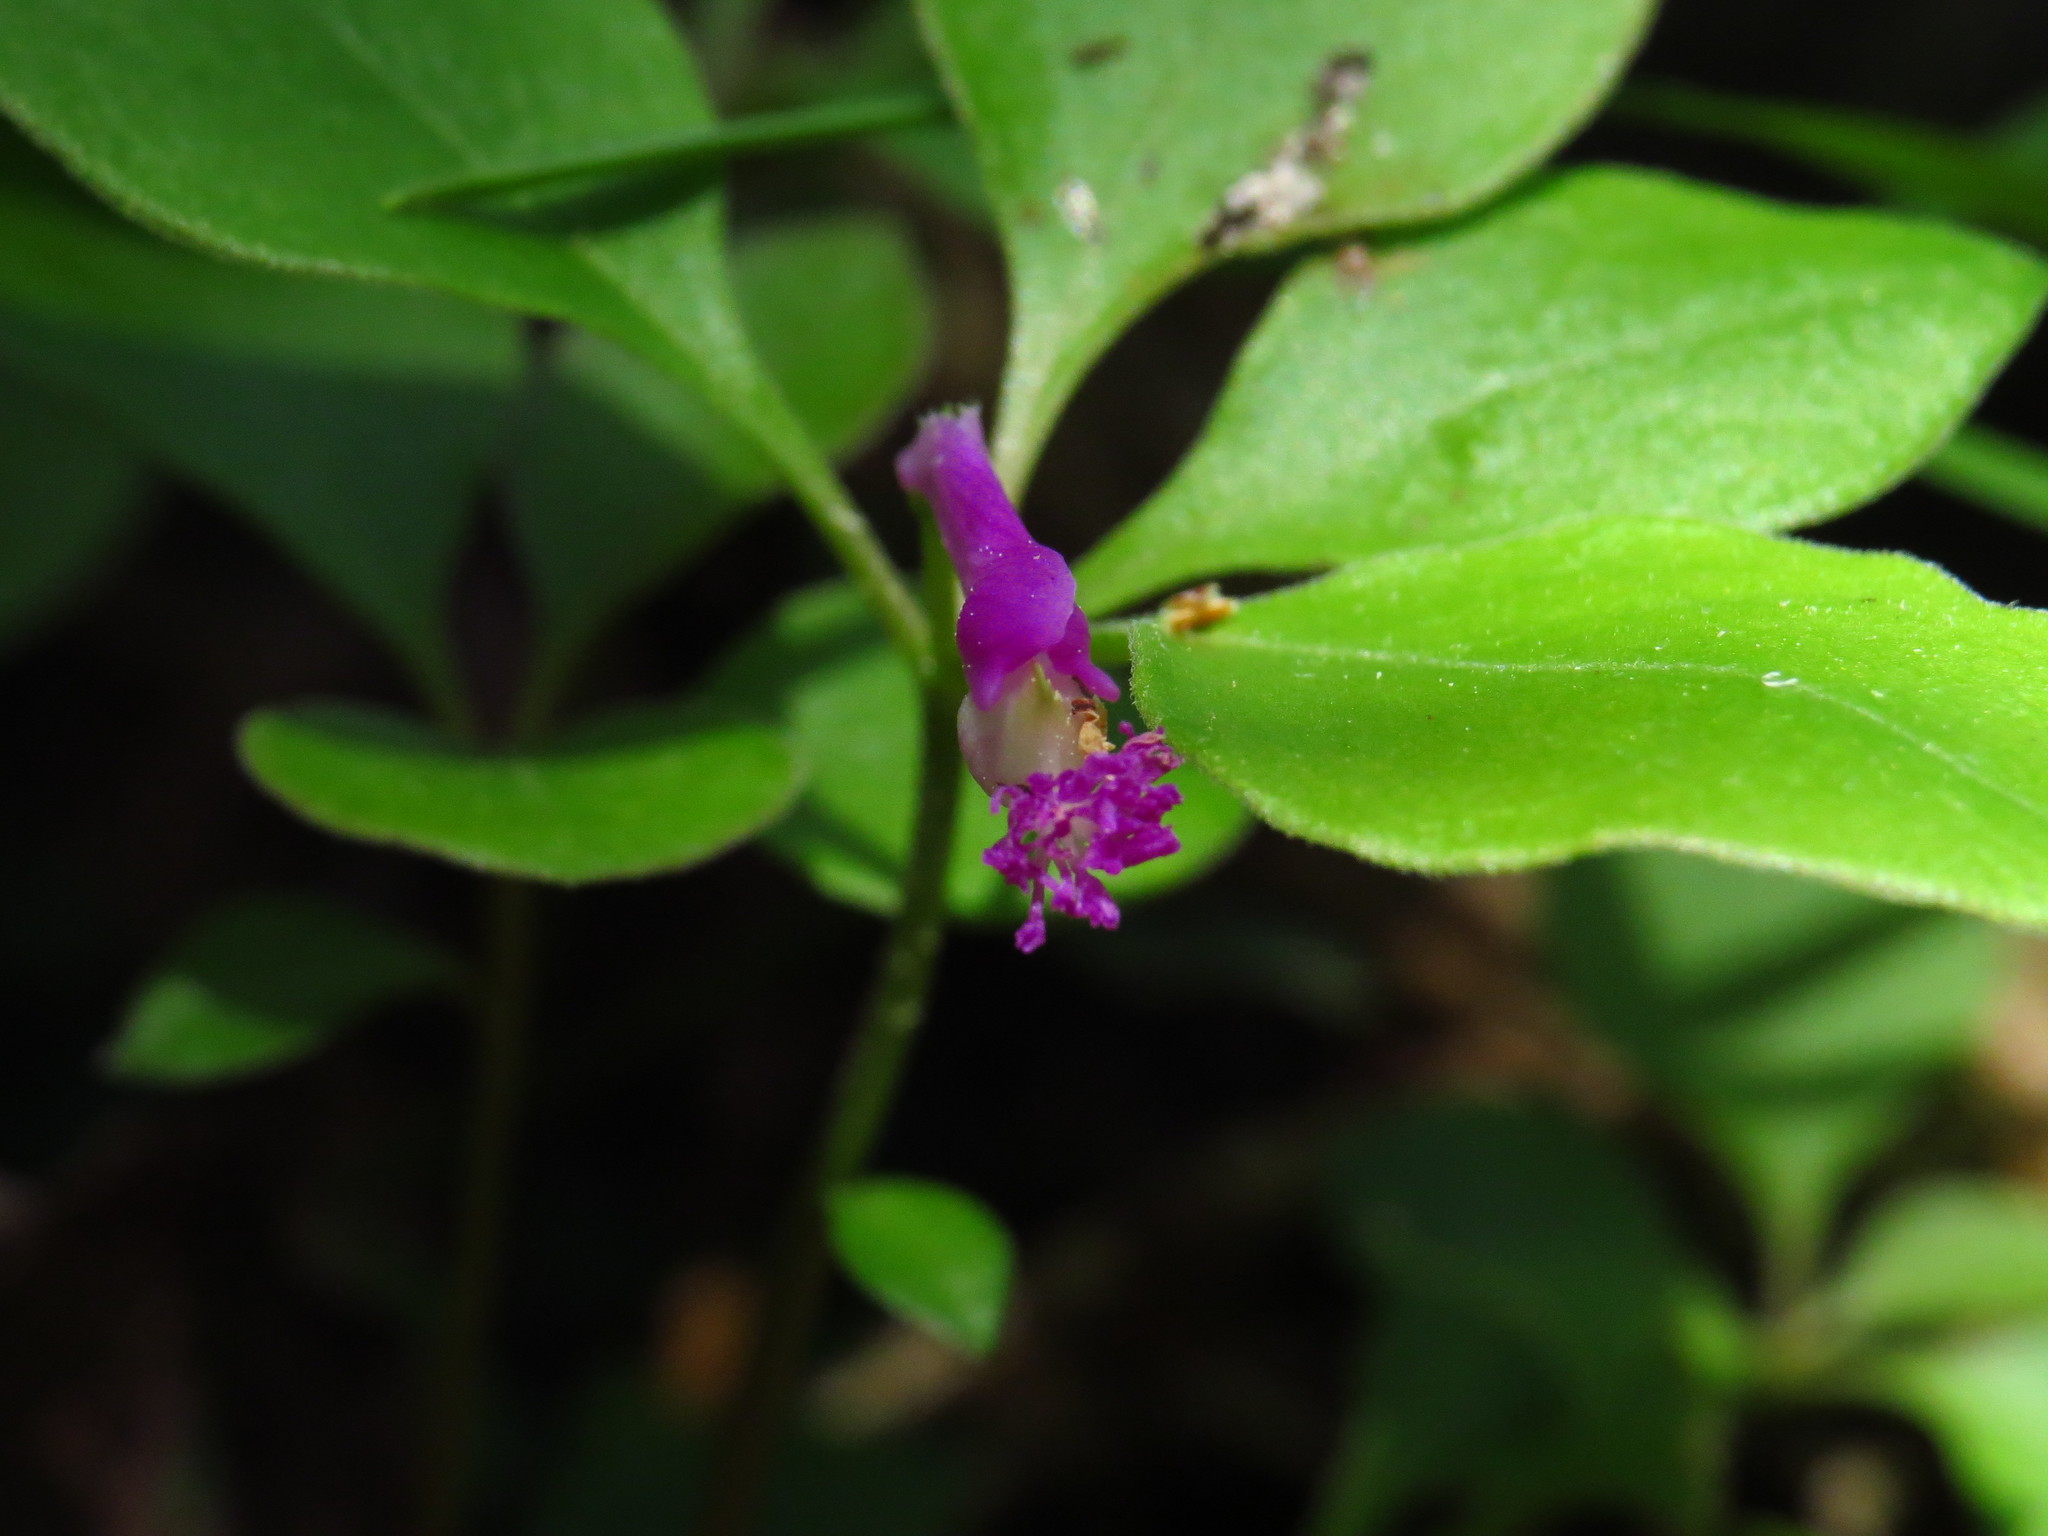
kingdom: Plantae
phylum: Tracheophyta
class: Magnoliopsida
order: Fabales
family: Polygalaceae
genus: Polygaloides
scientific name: Polygaloides paucifolia
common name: Bird-on-the-wing
